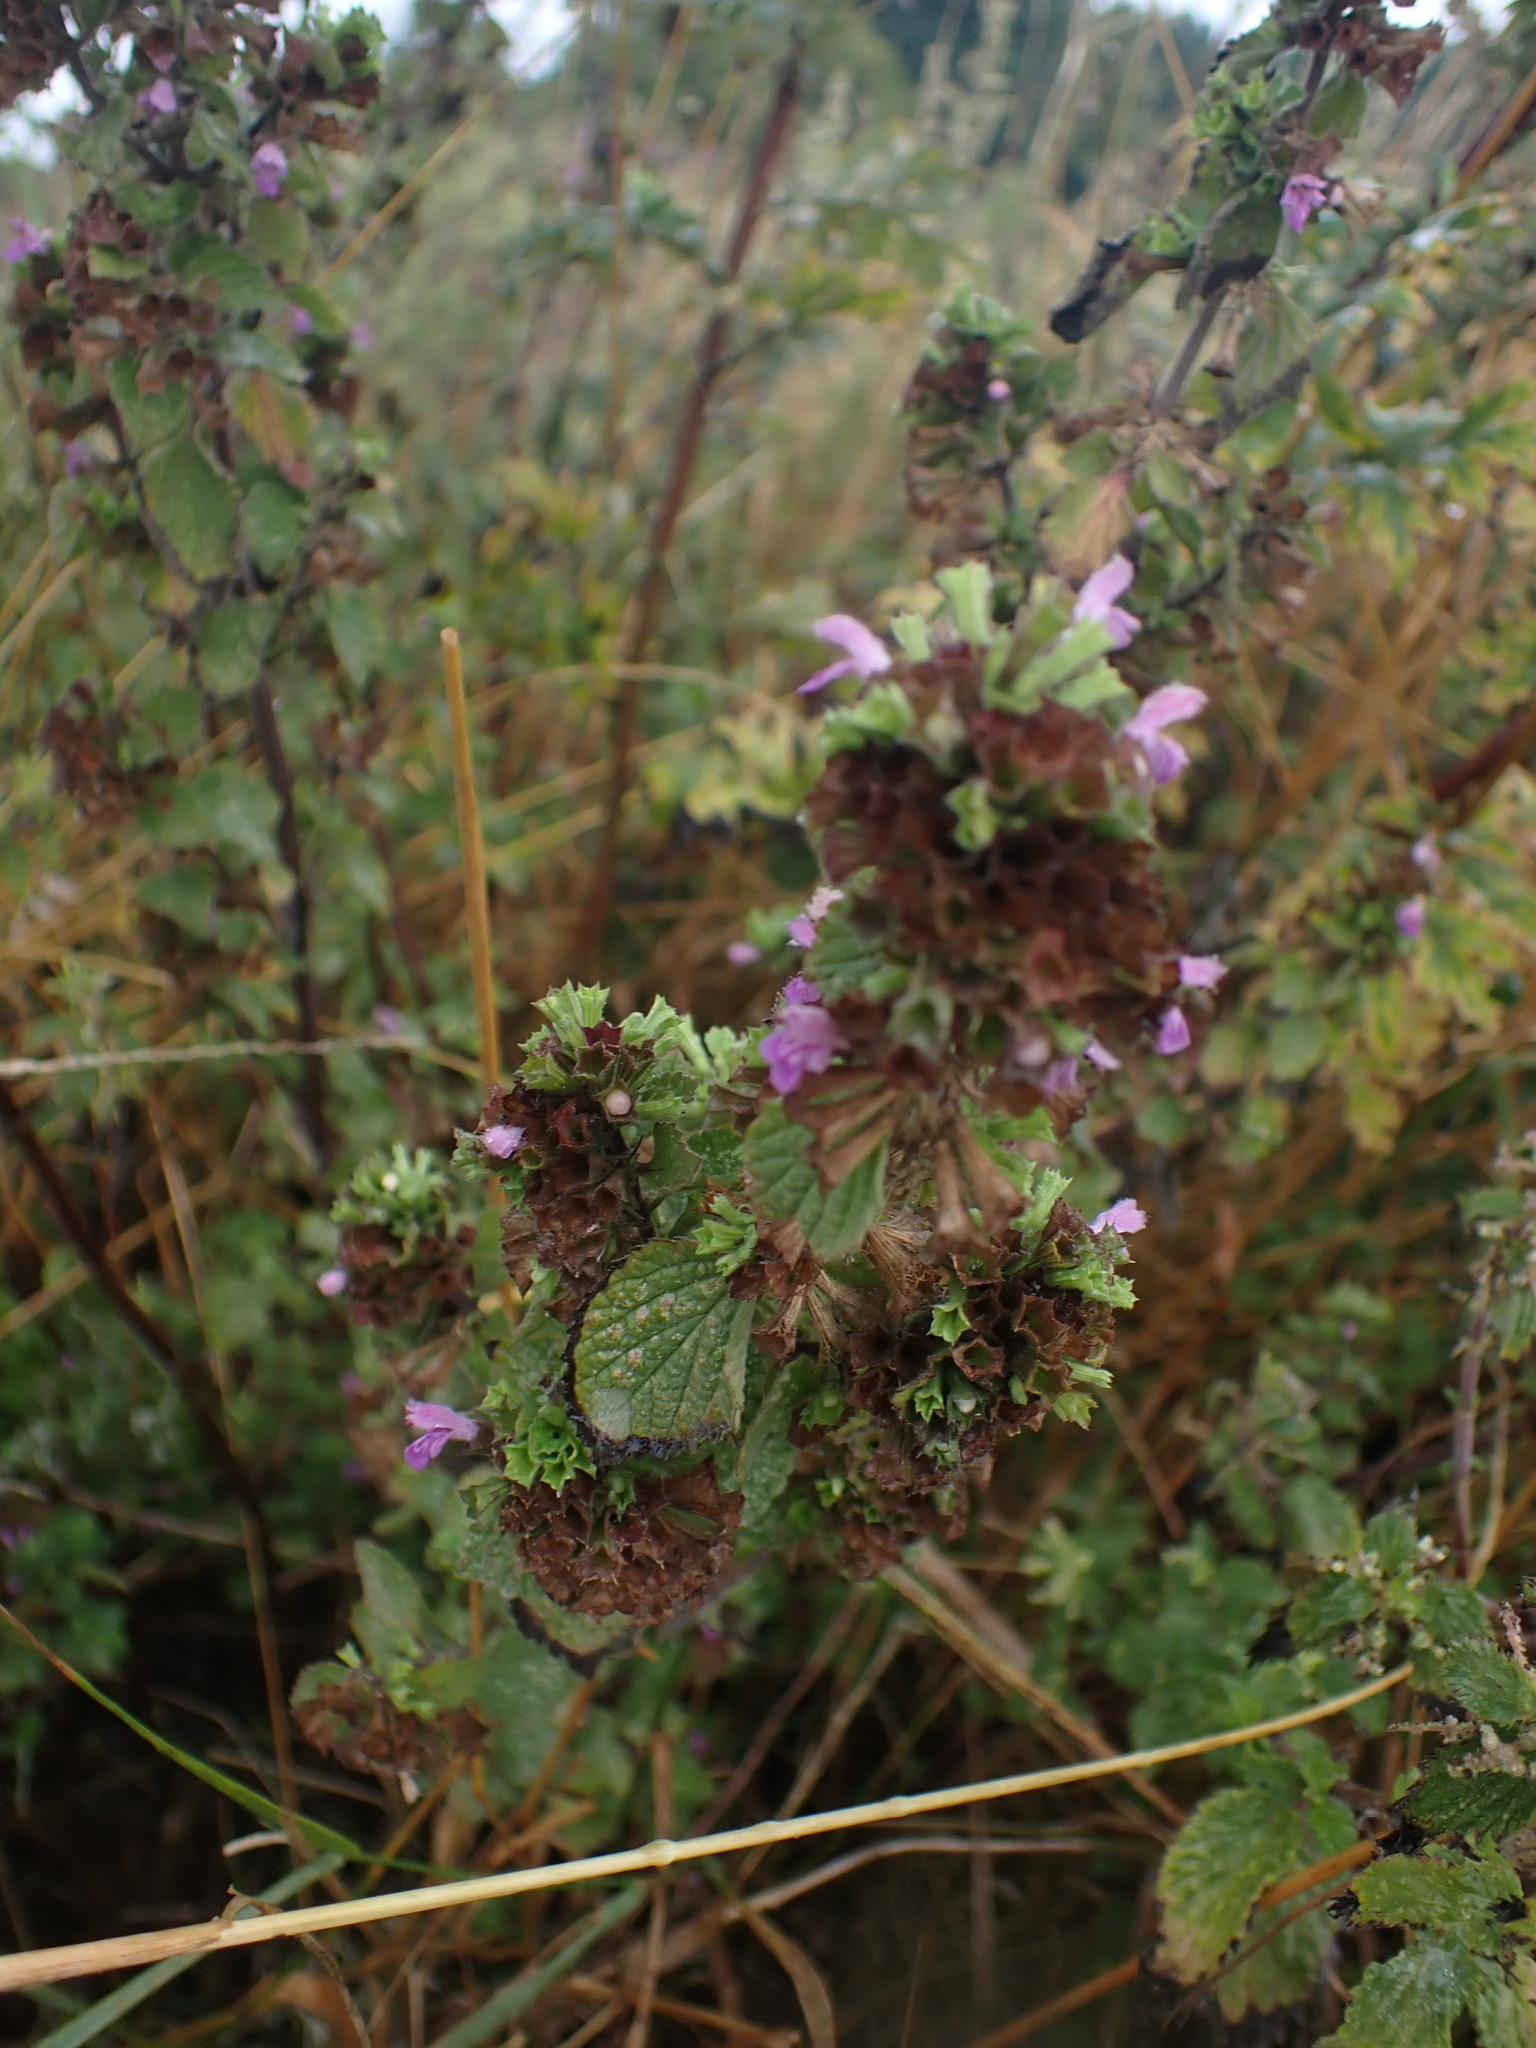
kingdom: Plantae
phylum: Tracheophyta
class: Magnoliopsida
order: Lamiales
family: Lamiaceae
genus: Ballota
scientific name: Ballota nigra
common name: Black horehound
